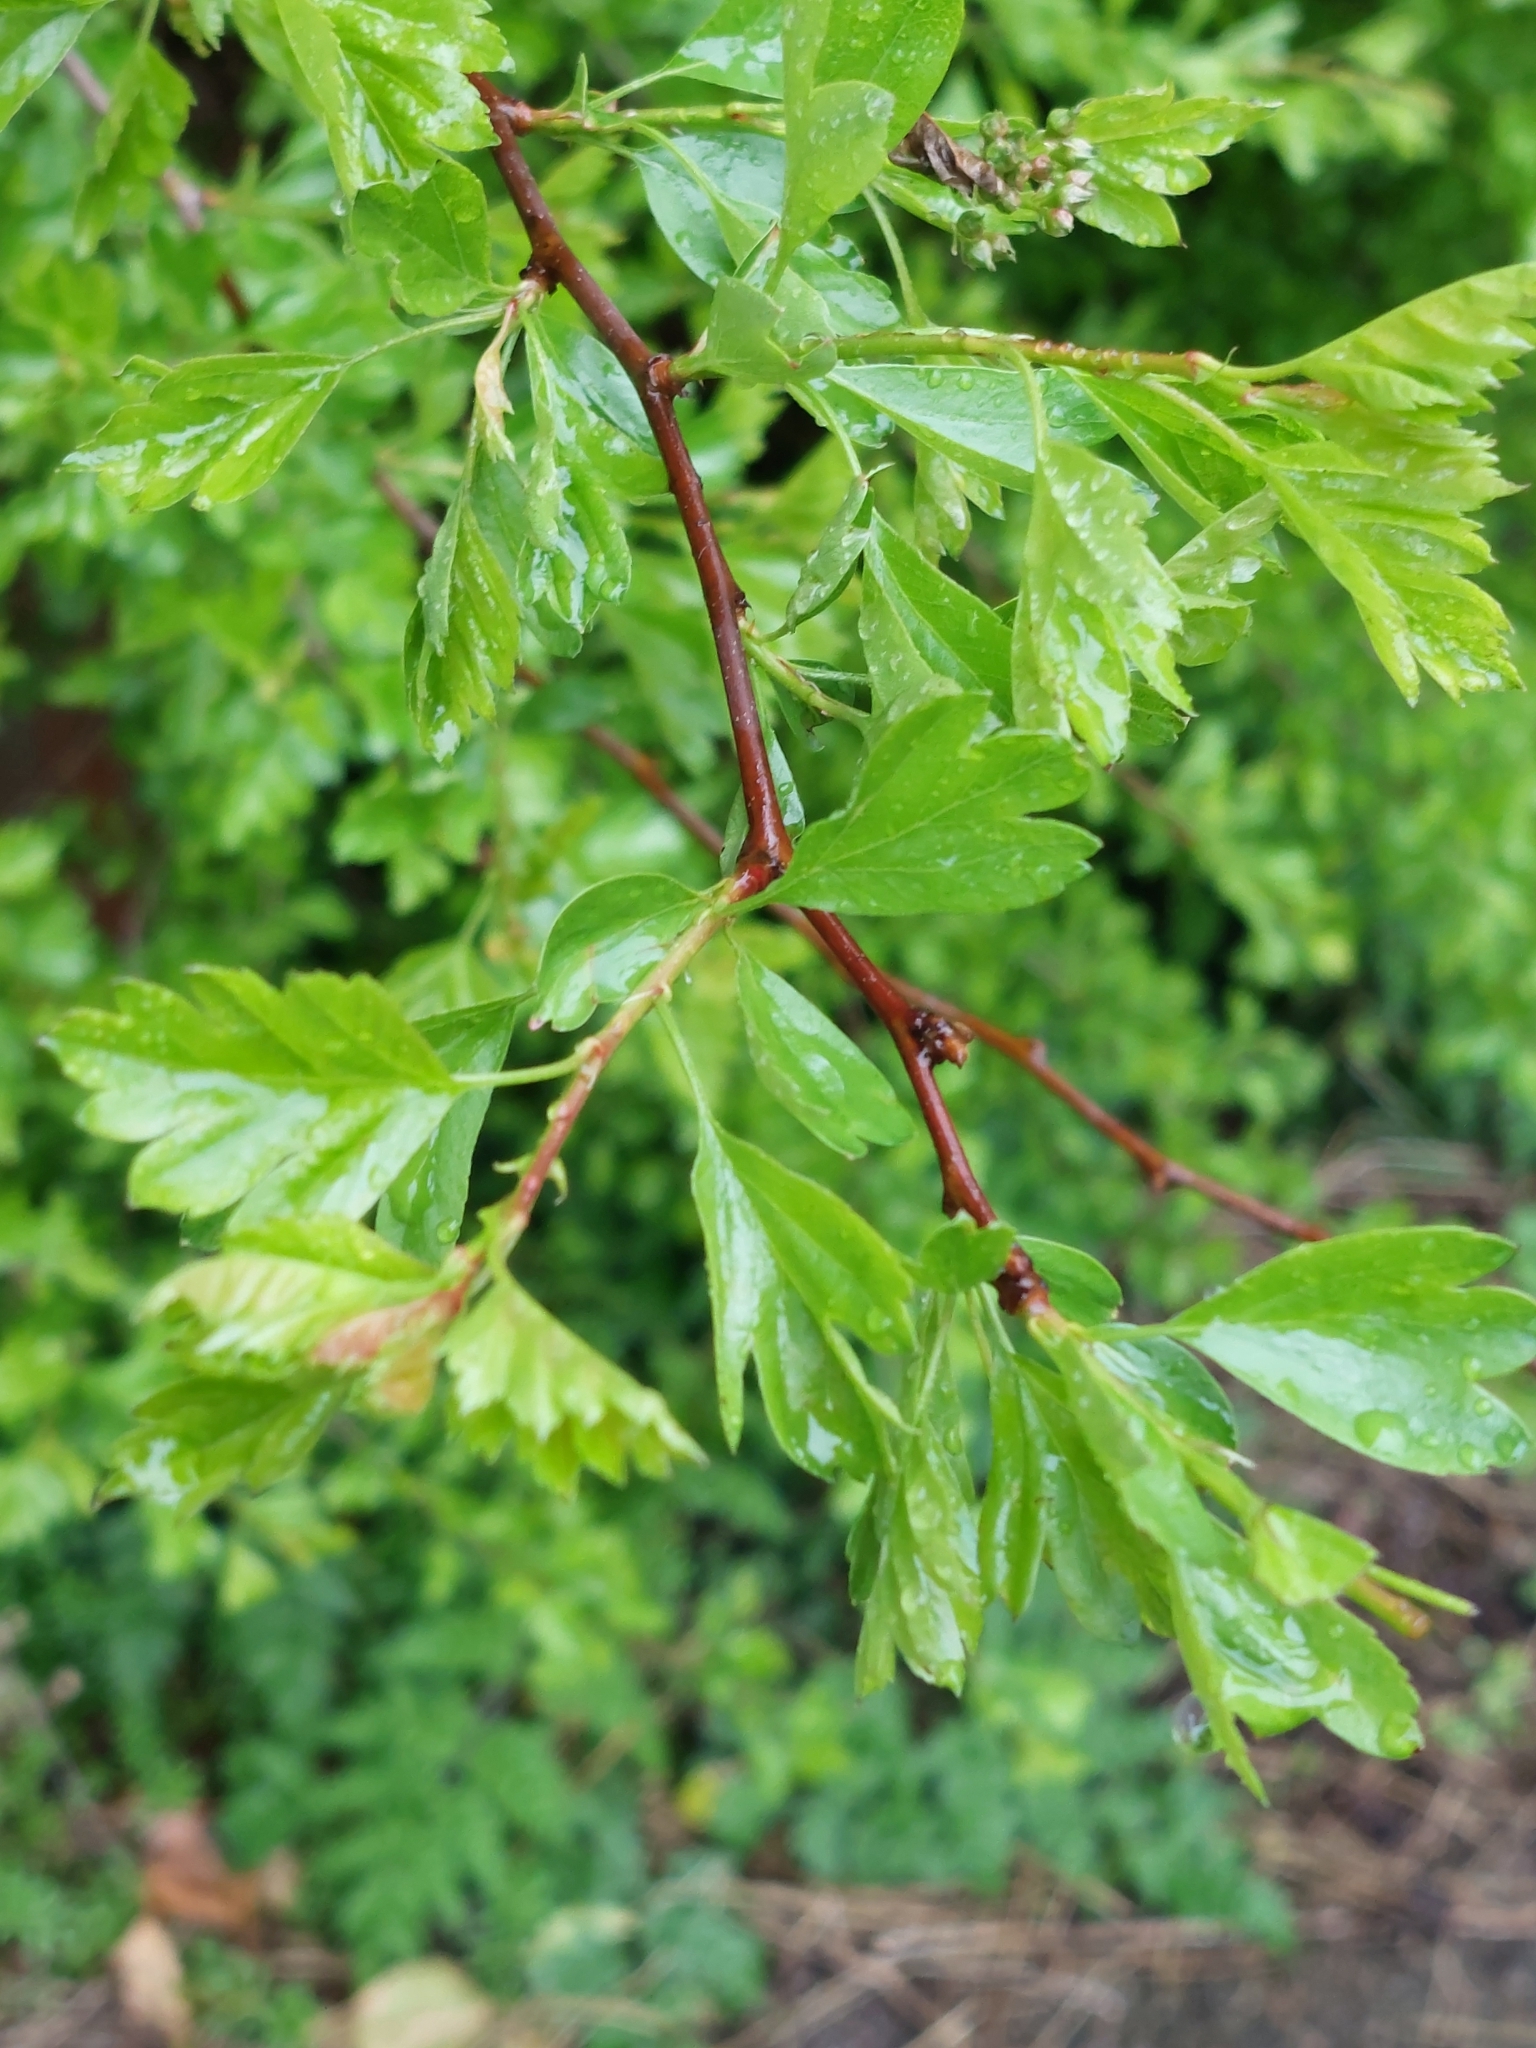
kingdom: Plantae
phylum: Tracheophyta
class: Magnoliopsida
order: Rosales
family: Rosaceae
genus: Crataegus
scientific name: Crataegus monogyna
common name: Hawthorn
